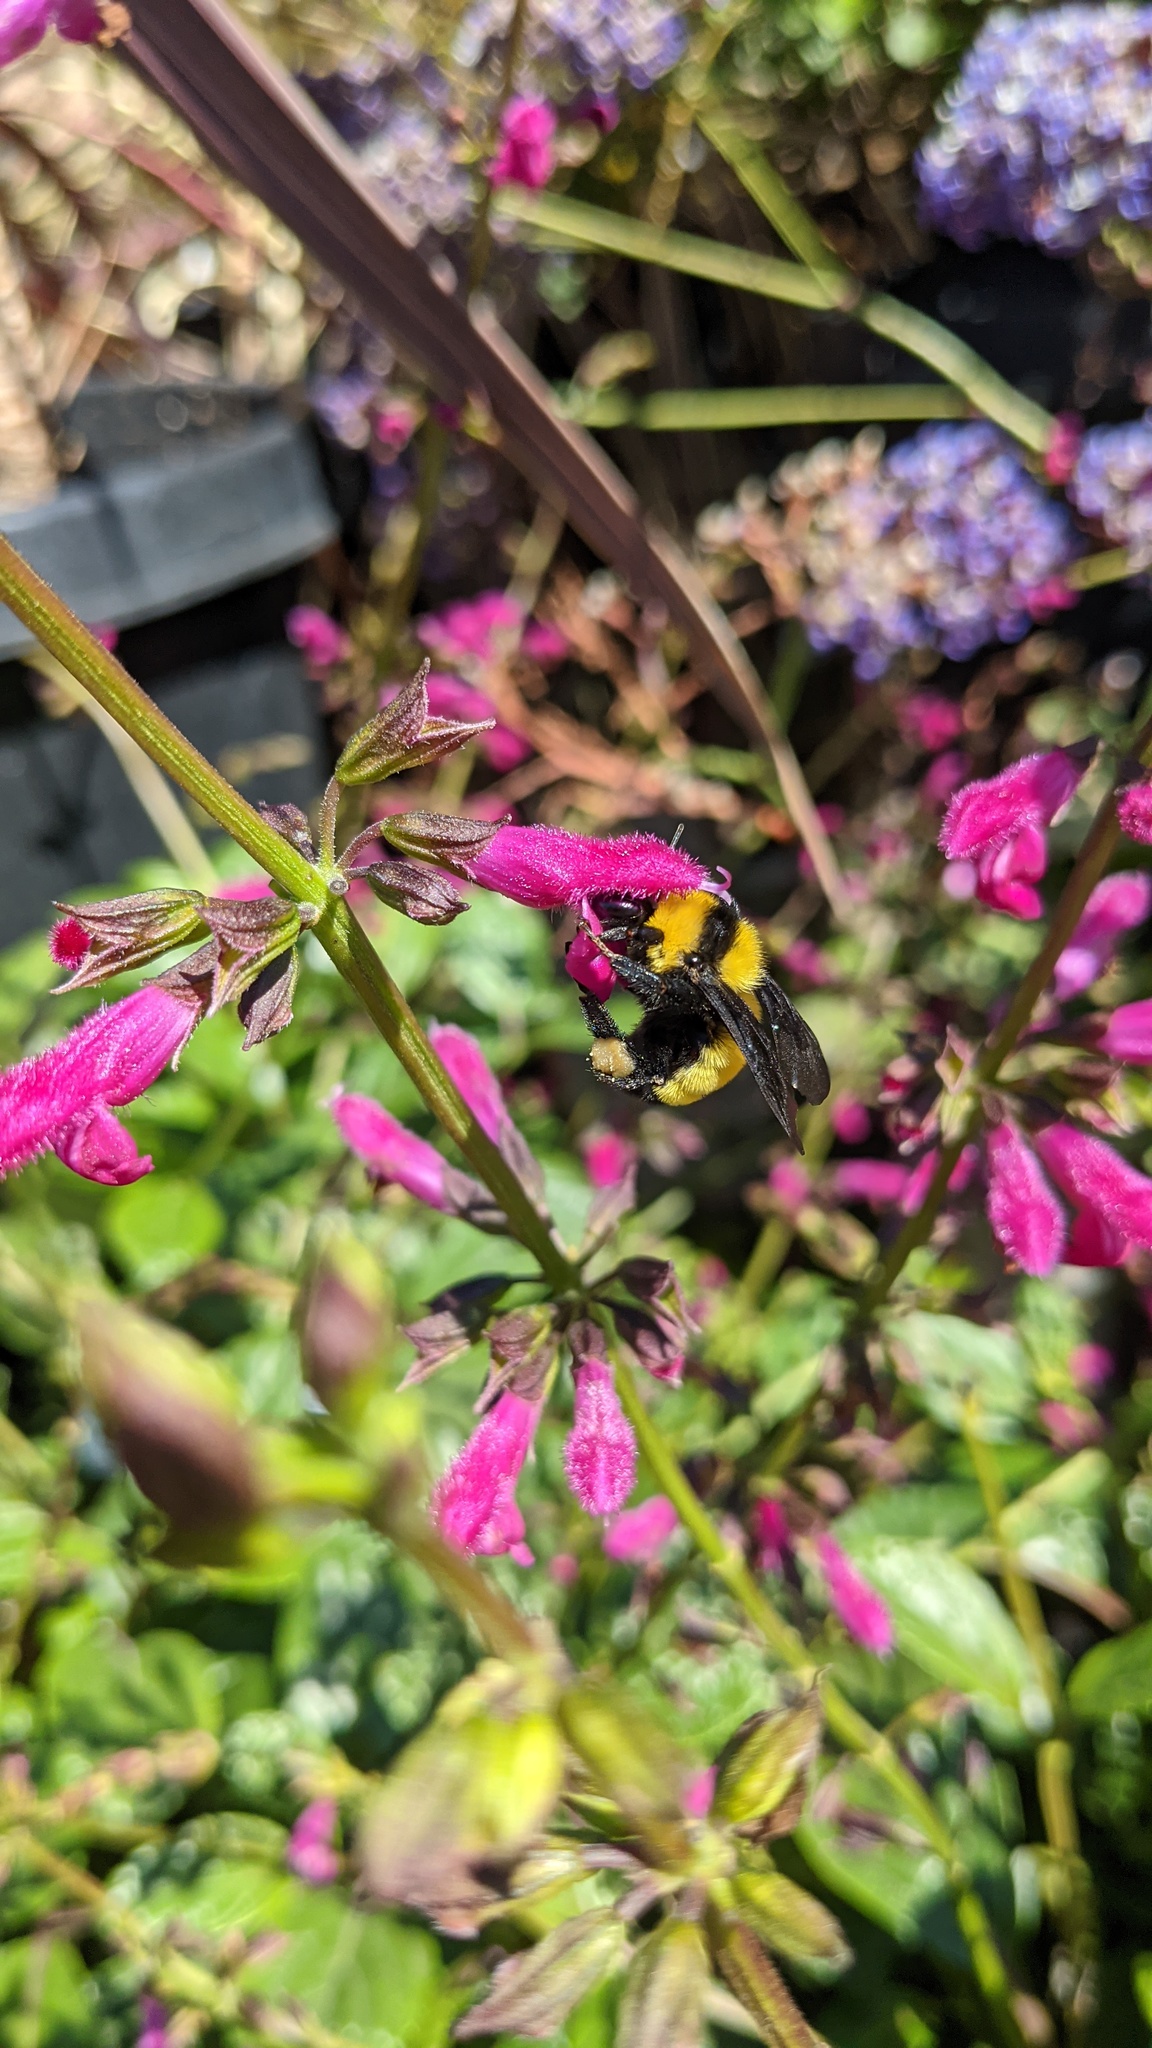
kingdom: Animalia
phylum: Arthropoda
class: Insecta
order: Hymenoptera
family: Apidae
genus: Bombus
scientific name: Bombus sonorus
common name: Sonoran bumble bee
